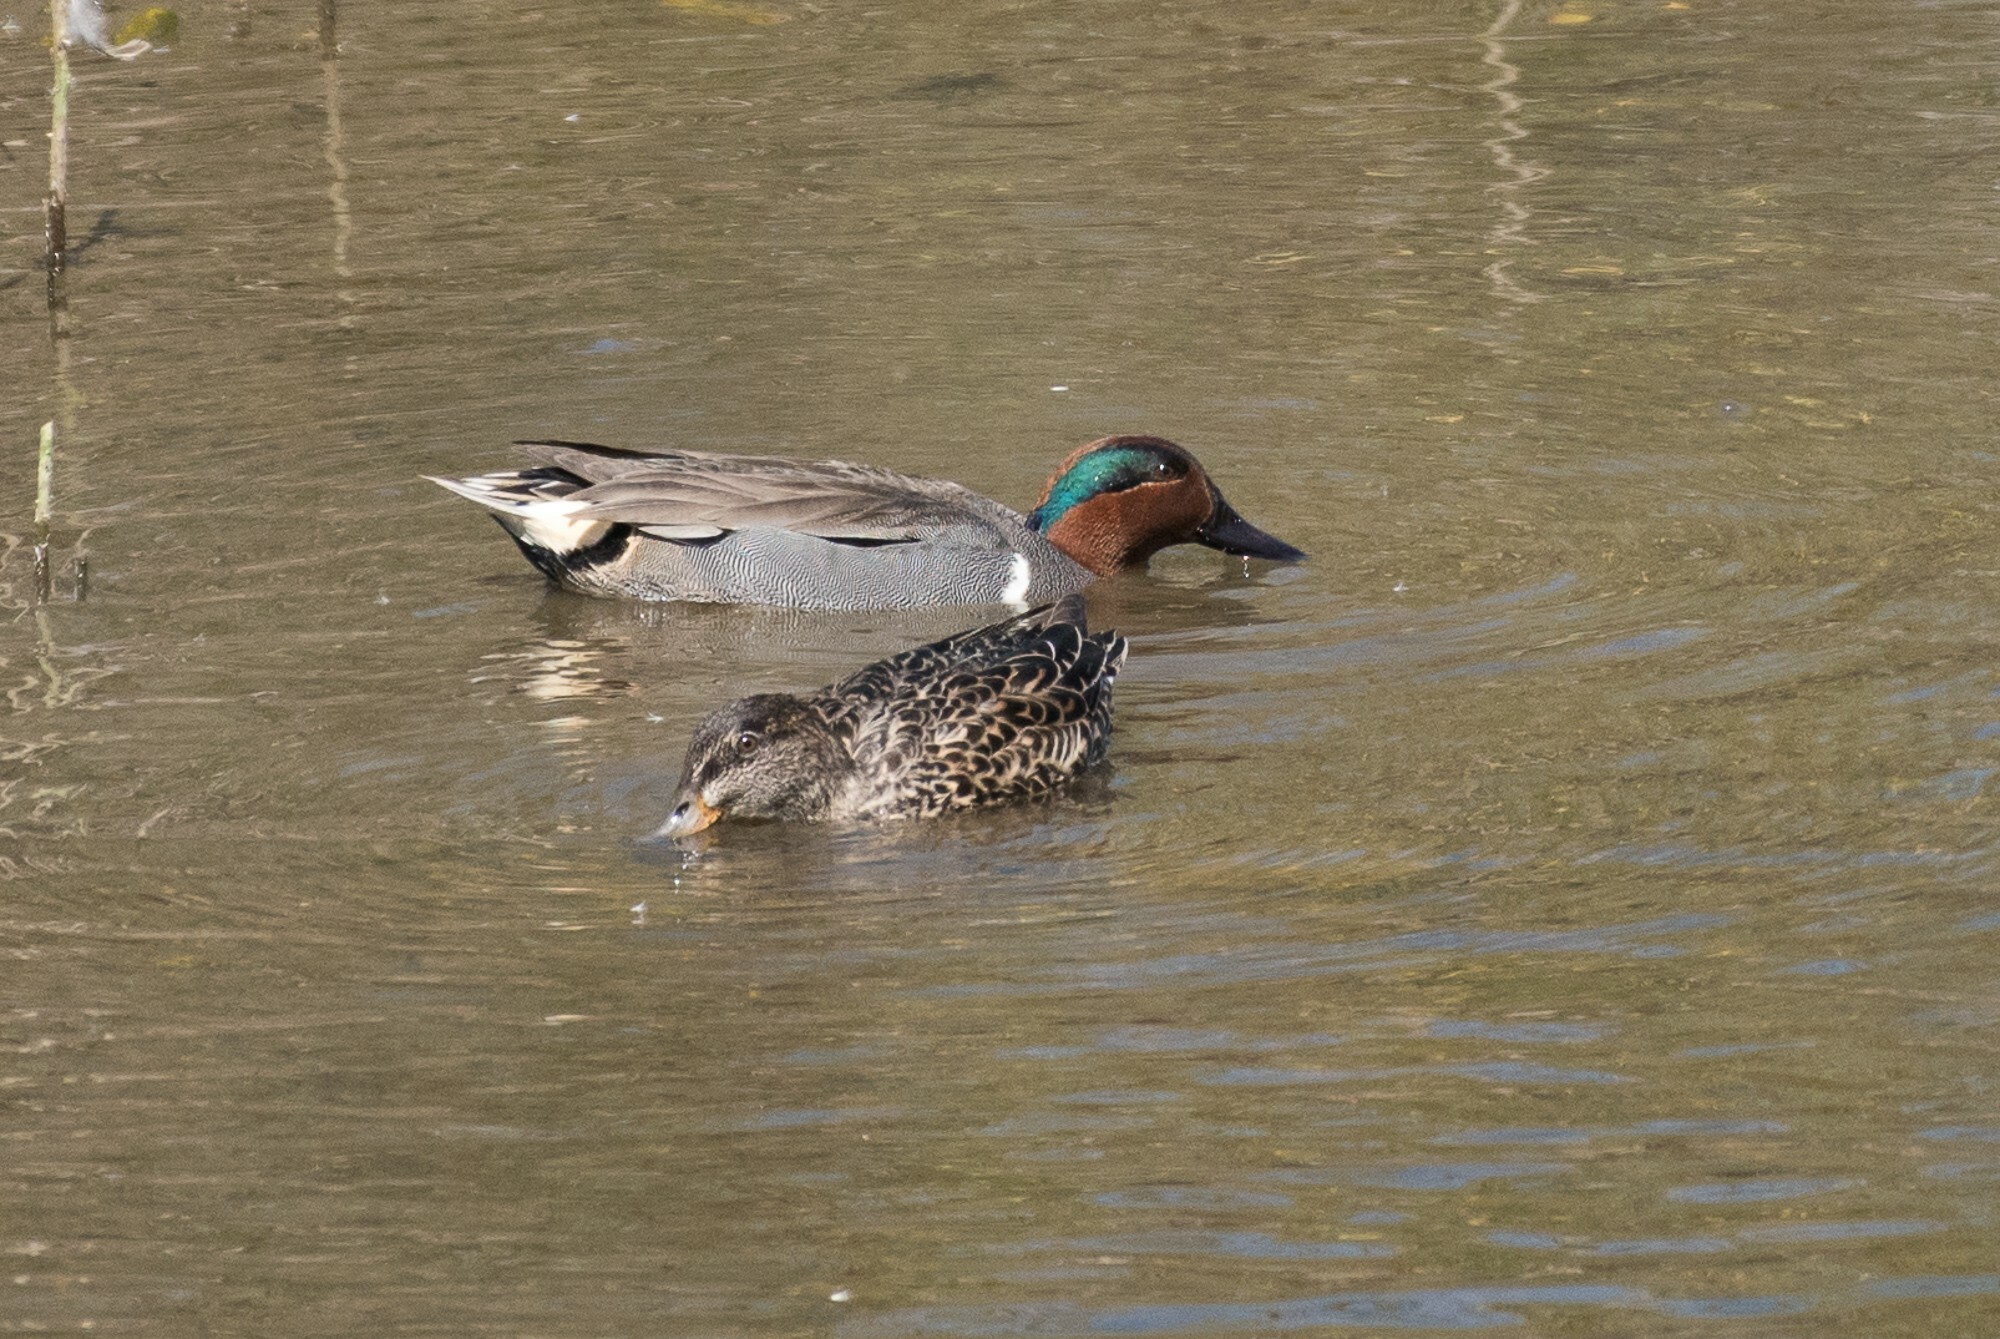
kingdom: Animalia
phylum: Chordata
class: Aves
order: Anseriformes
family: Anatidae
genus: Anas
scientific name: Anas crecca
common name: Eurasian teal
